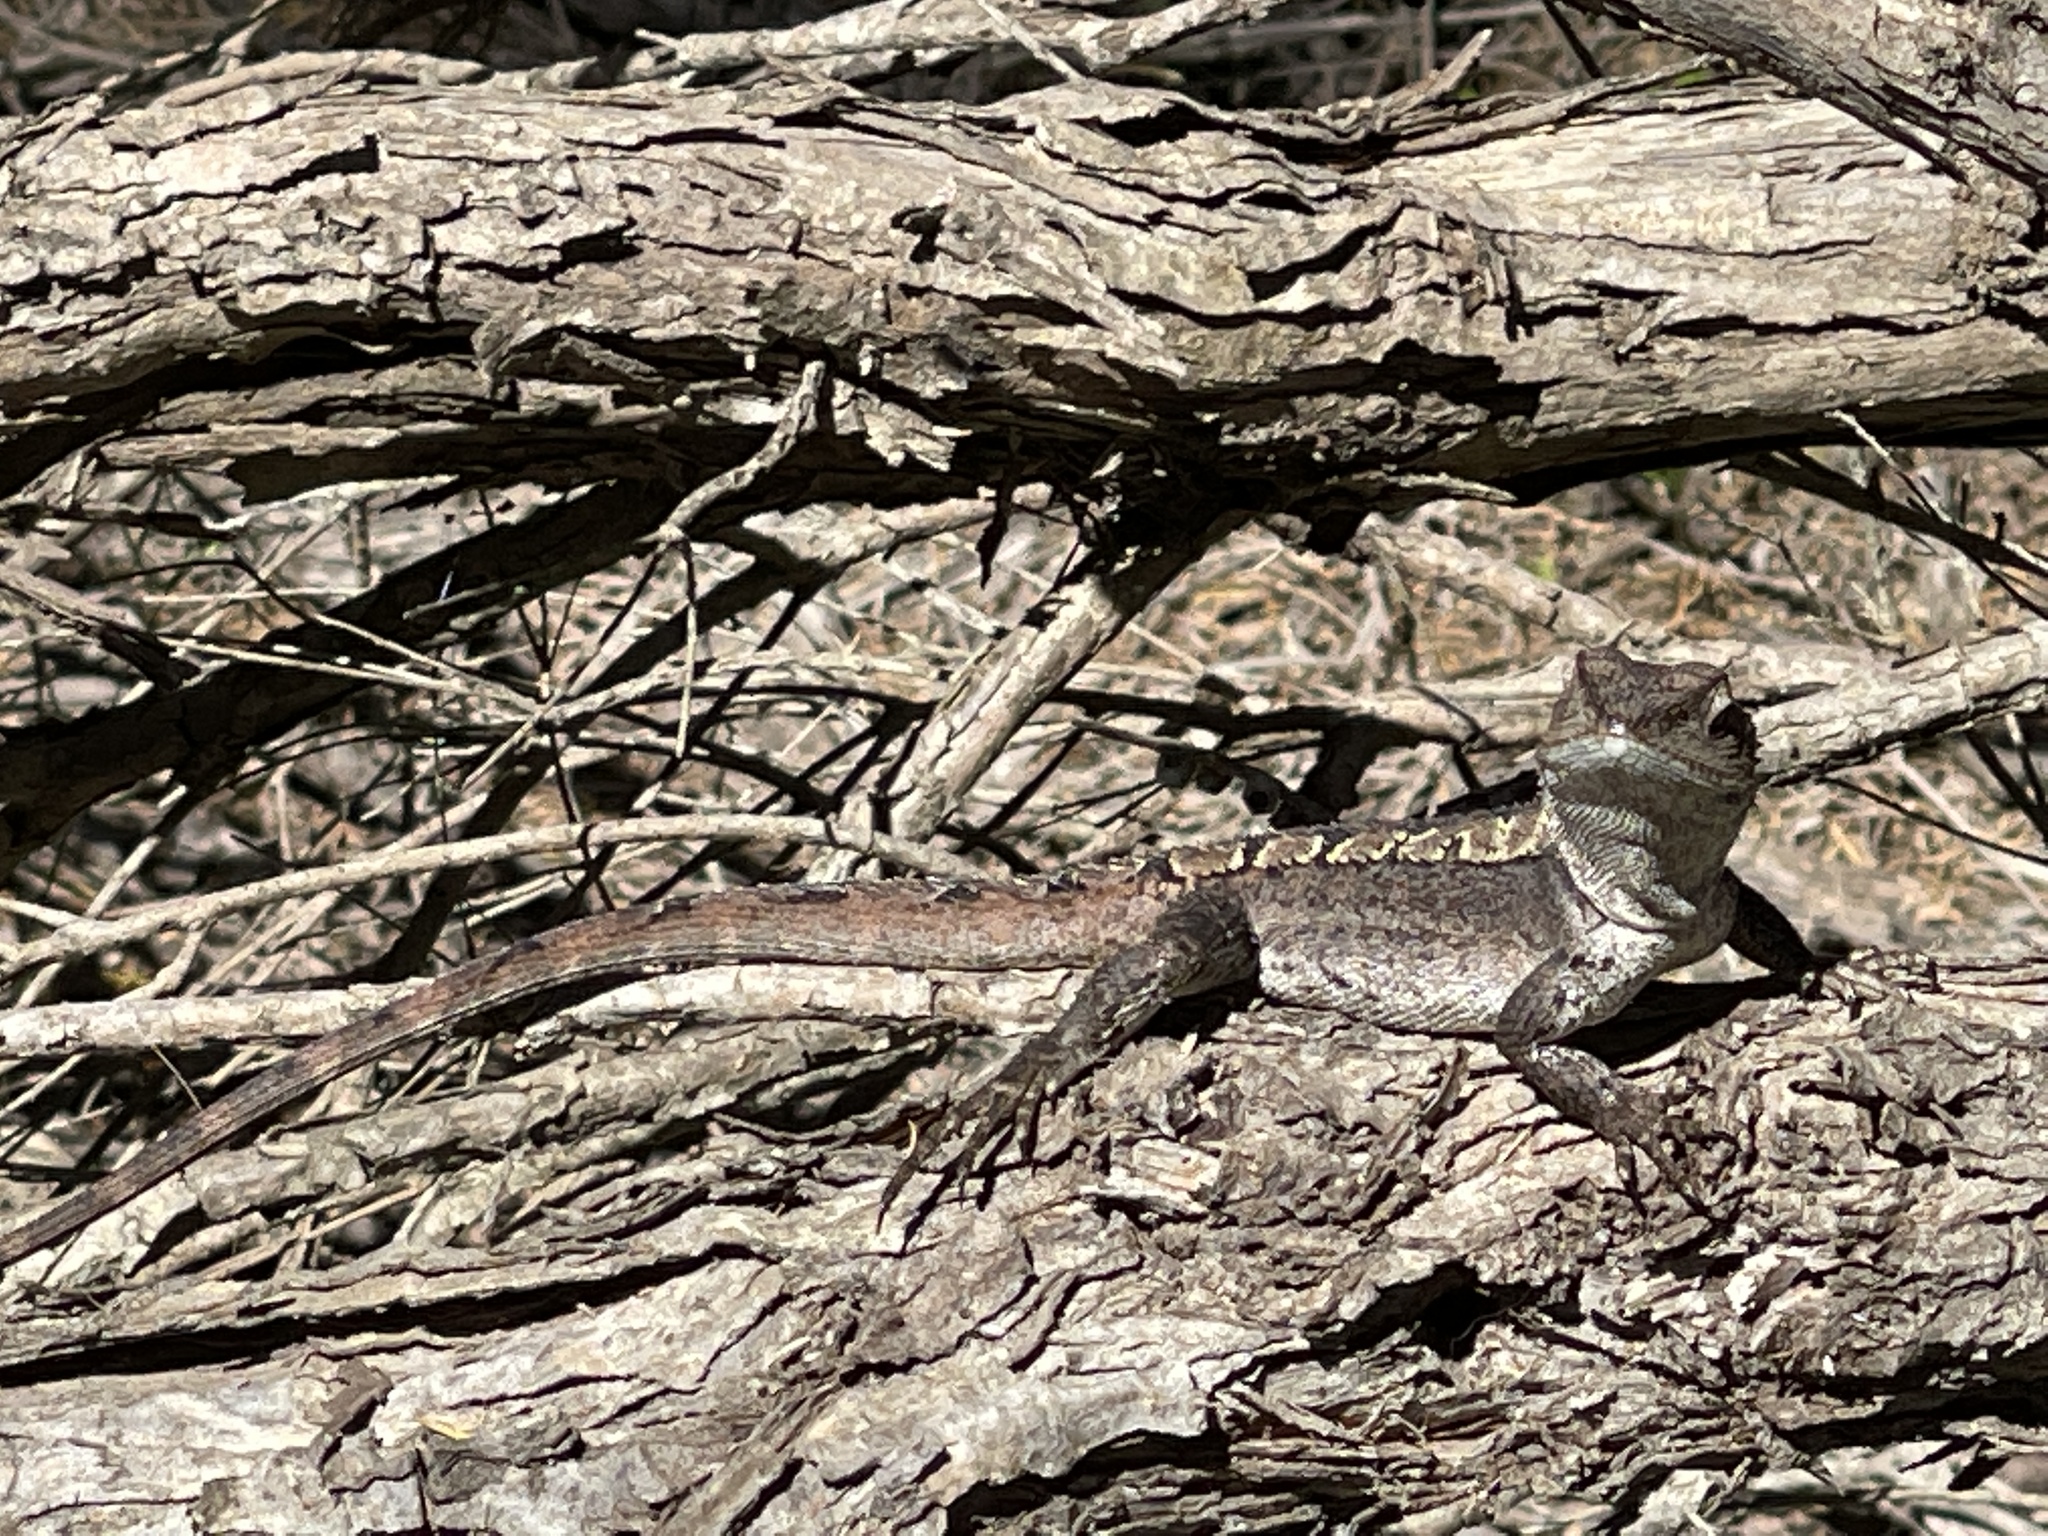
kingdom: Animalia
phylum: Chordata
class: Squamata
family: Agamidae
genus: Amphibolurus
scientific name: Amphibolurus muricatus
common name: Jacky lizard
